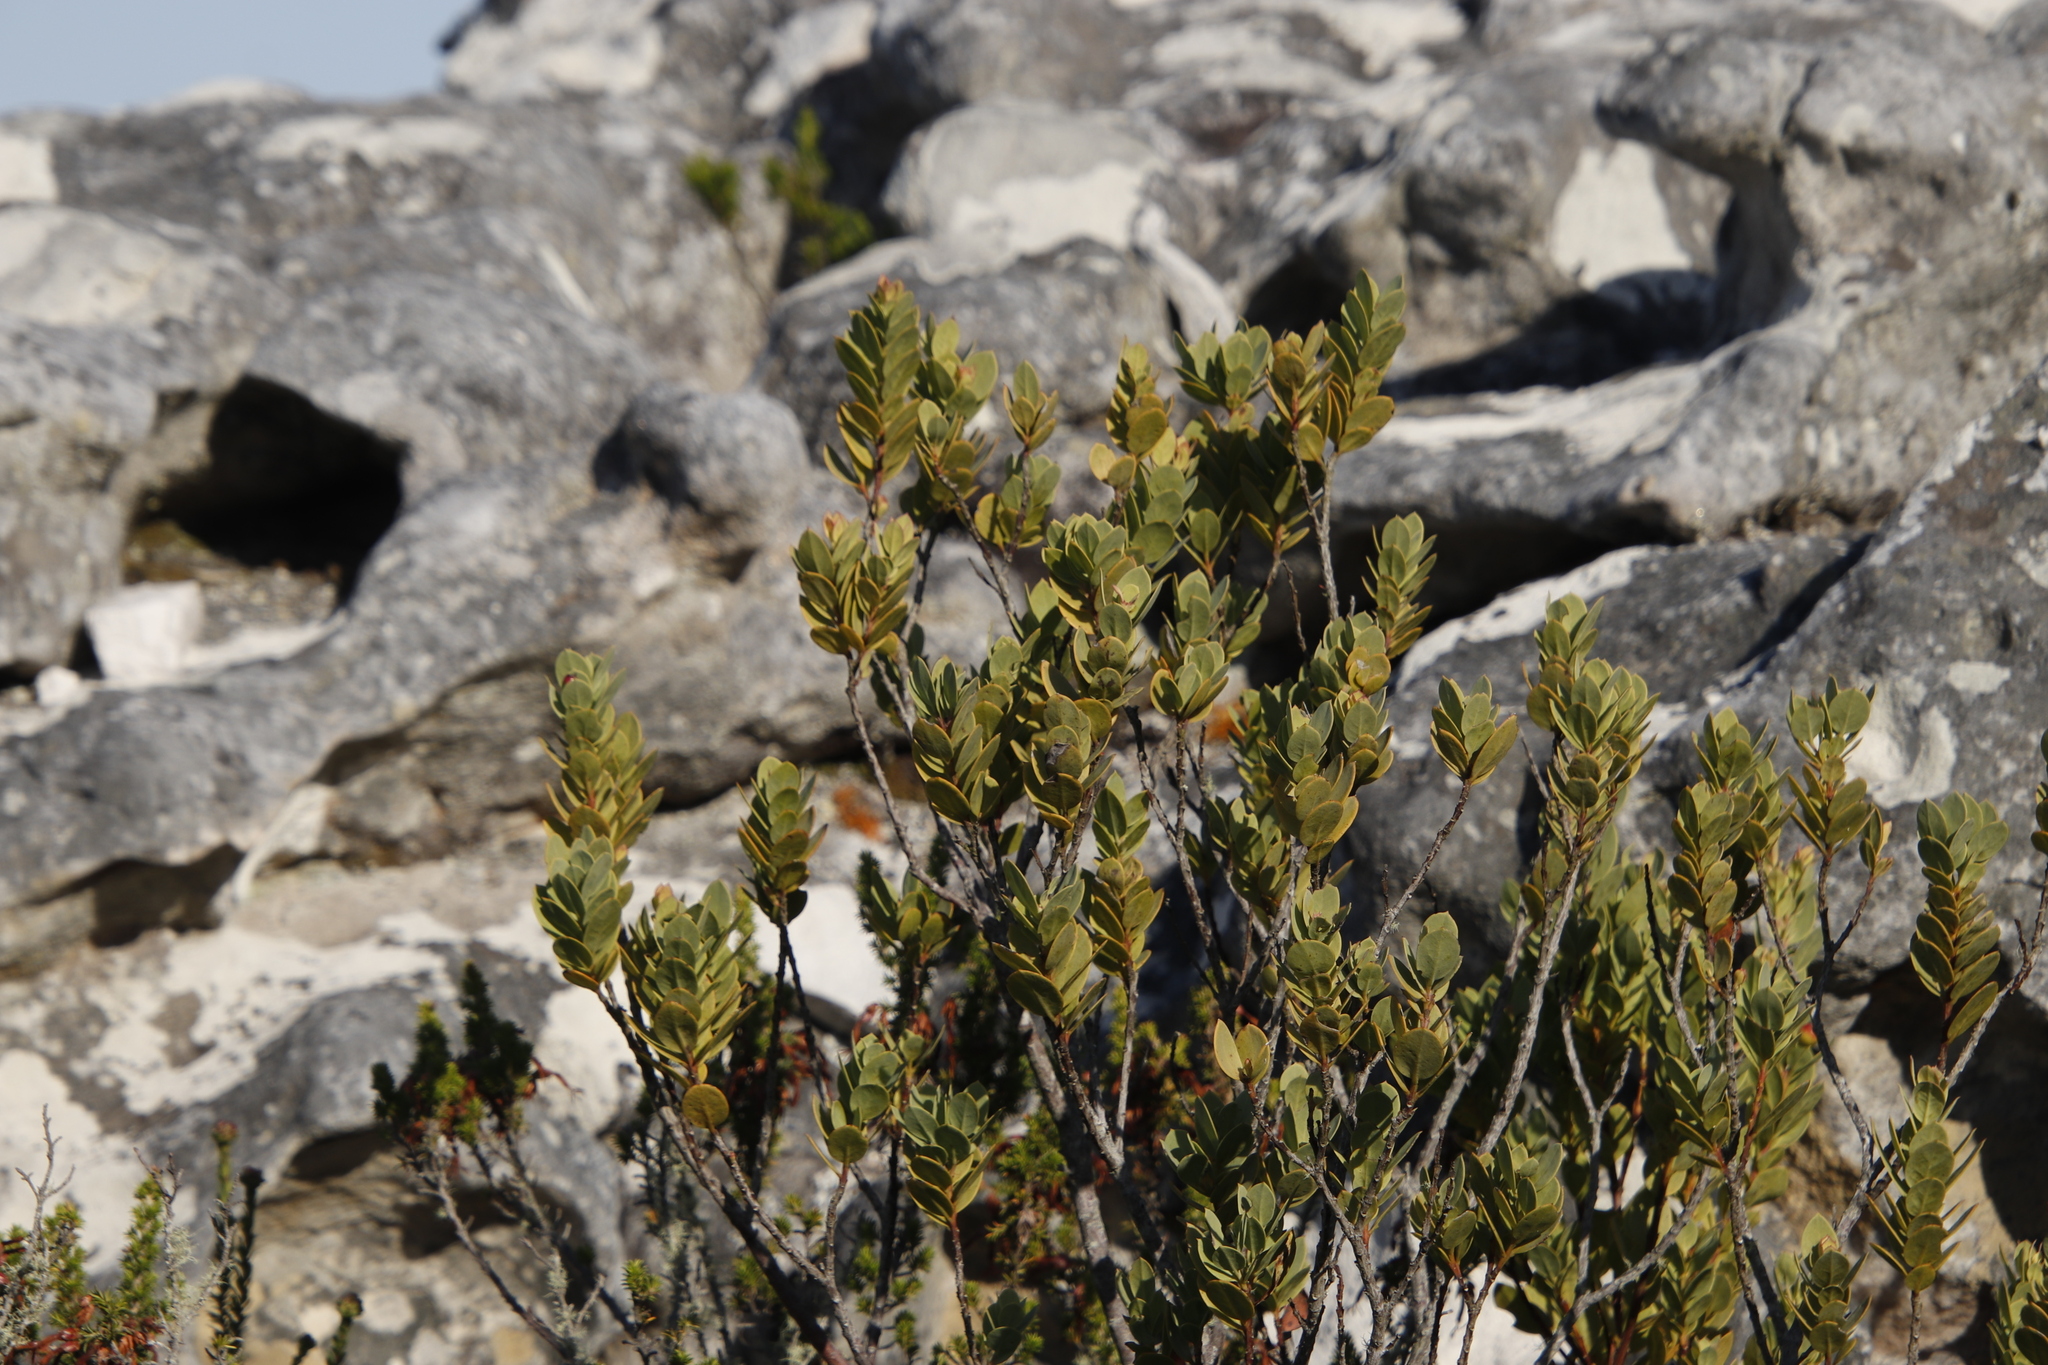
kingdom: Plantae
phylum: Tracheophyta
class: Magnoliopsida
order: Santalales
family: Santalaceae
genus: Osyris
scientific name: Osyris compressa
